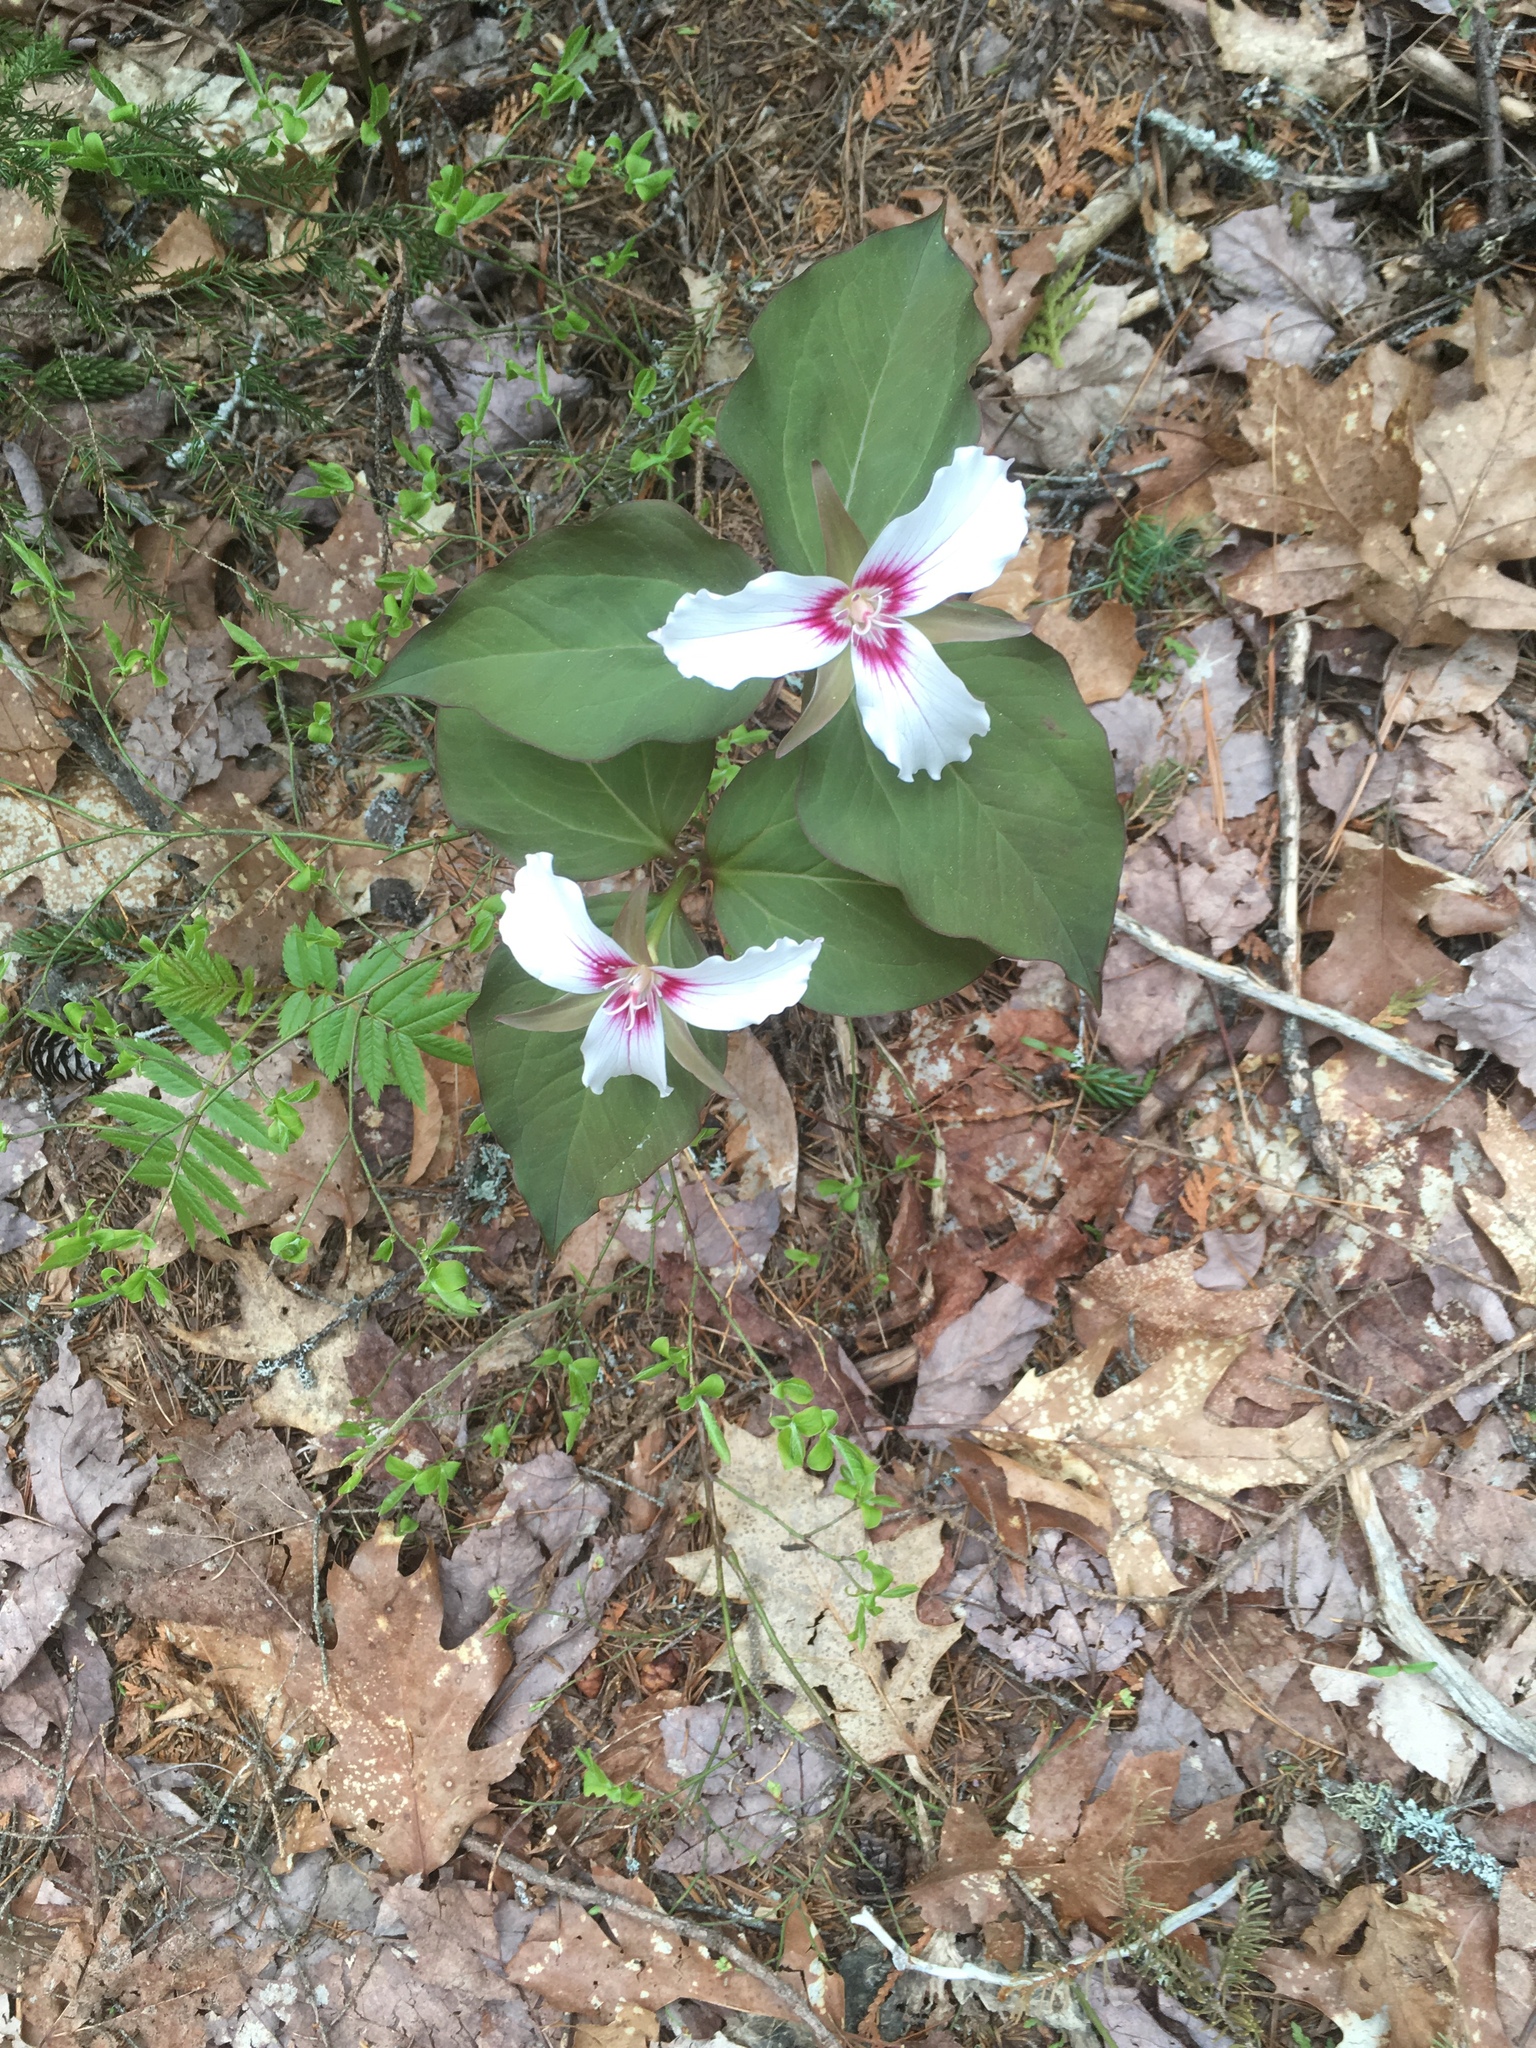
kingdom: Plantae
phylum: Tracheophyta
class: Liliopsida
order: Liliales
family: Melanthiaceae
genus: Trillium
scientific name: Trillium undulatum
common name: Paint trillium
